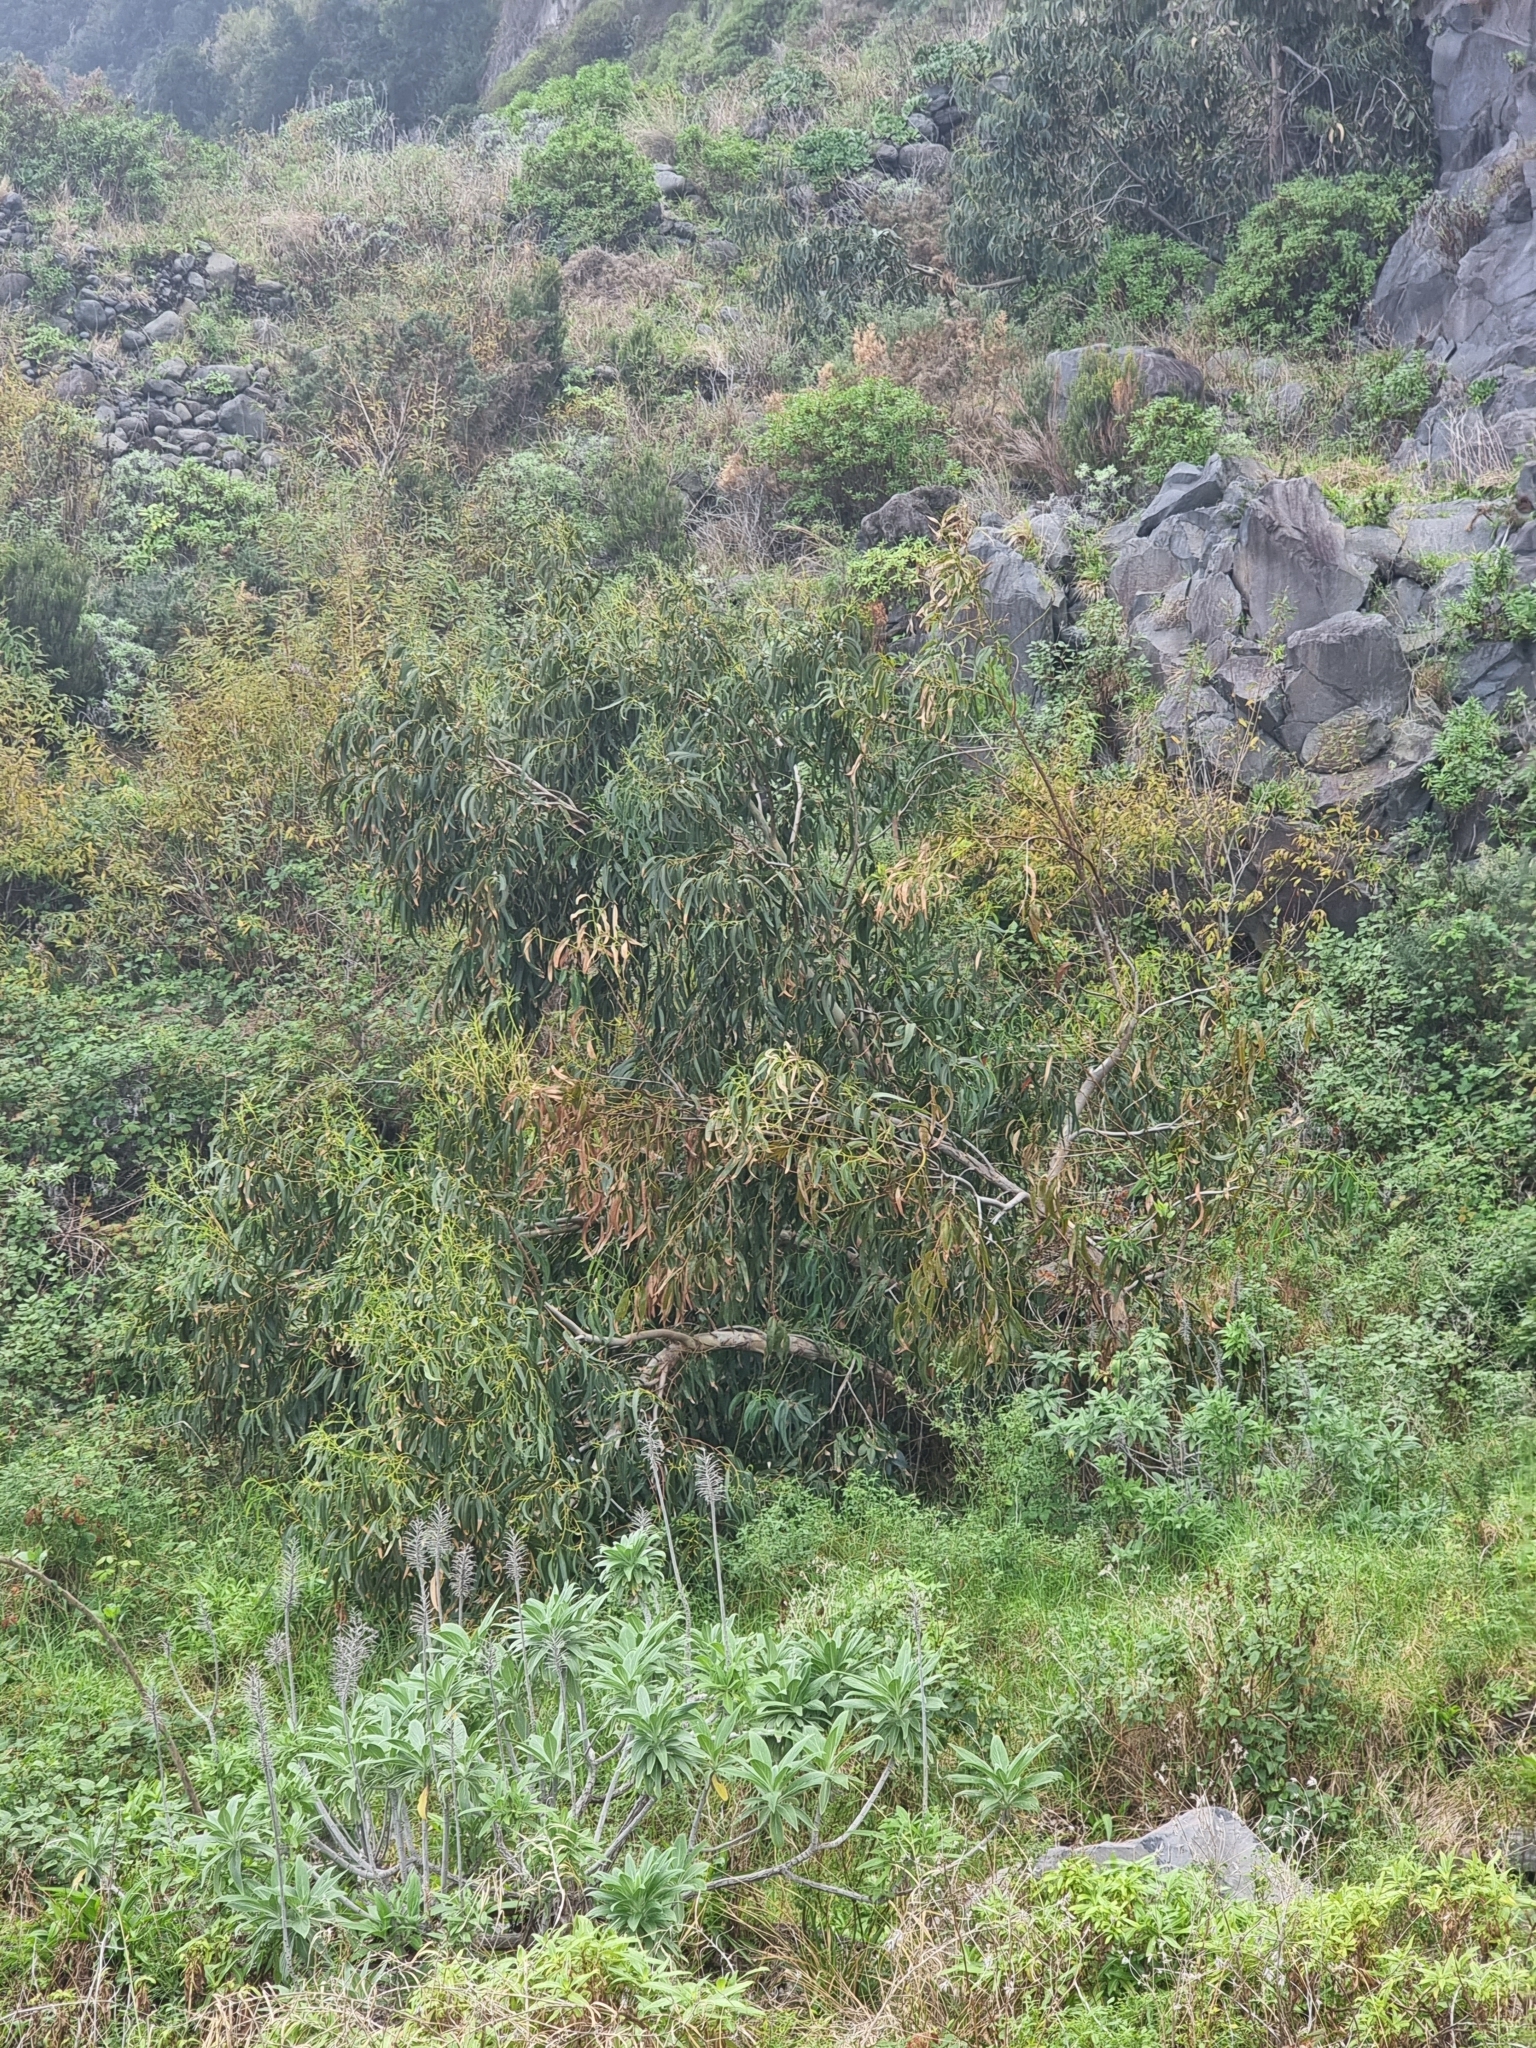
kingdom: Plantae
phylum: Tracheophyta
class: Magnoliopsida
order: Myrtales
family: Myrtaceae
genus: Eucalyptus
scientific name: Eucalyptus globulus
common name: Southern blue-gum
